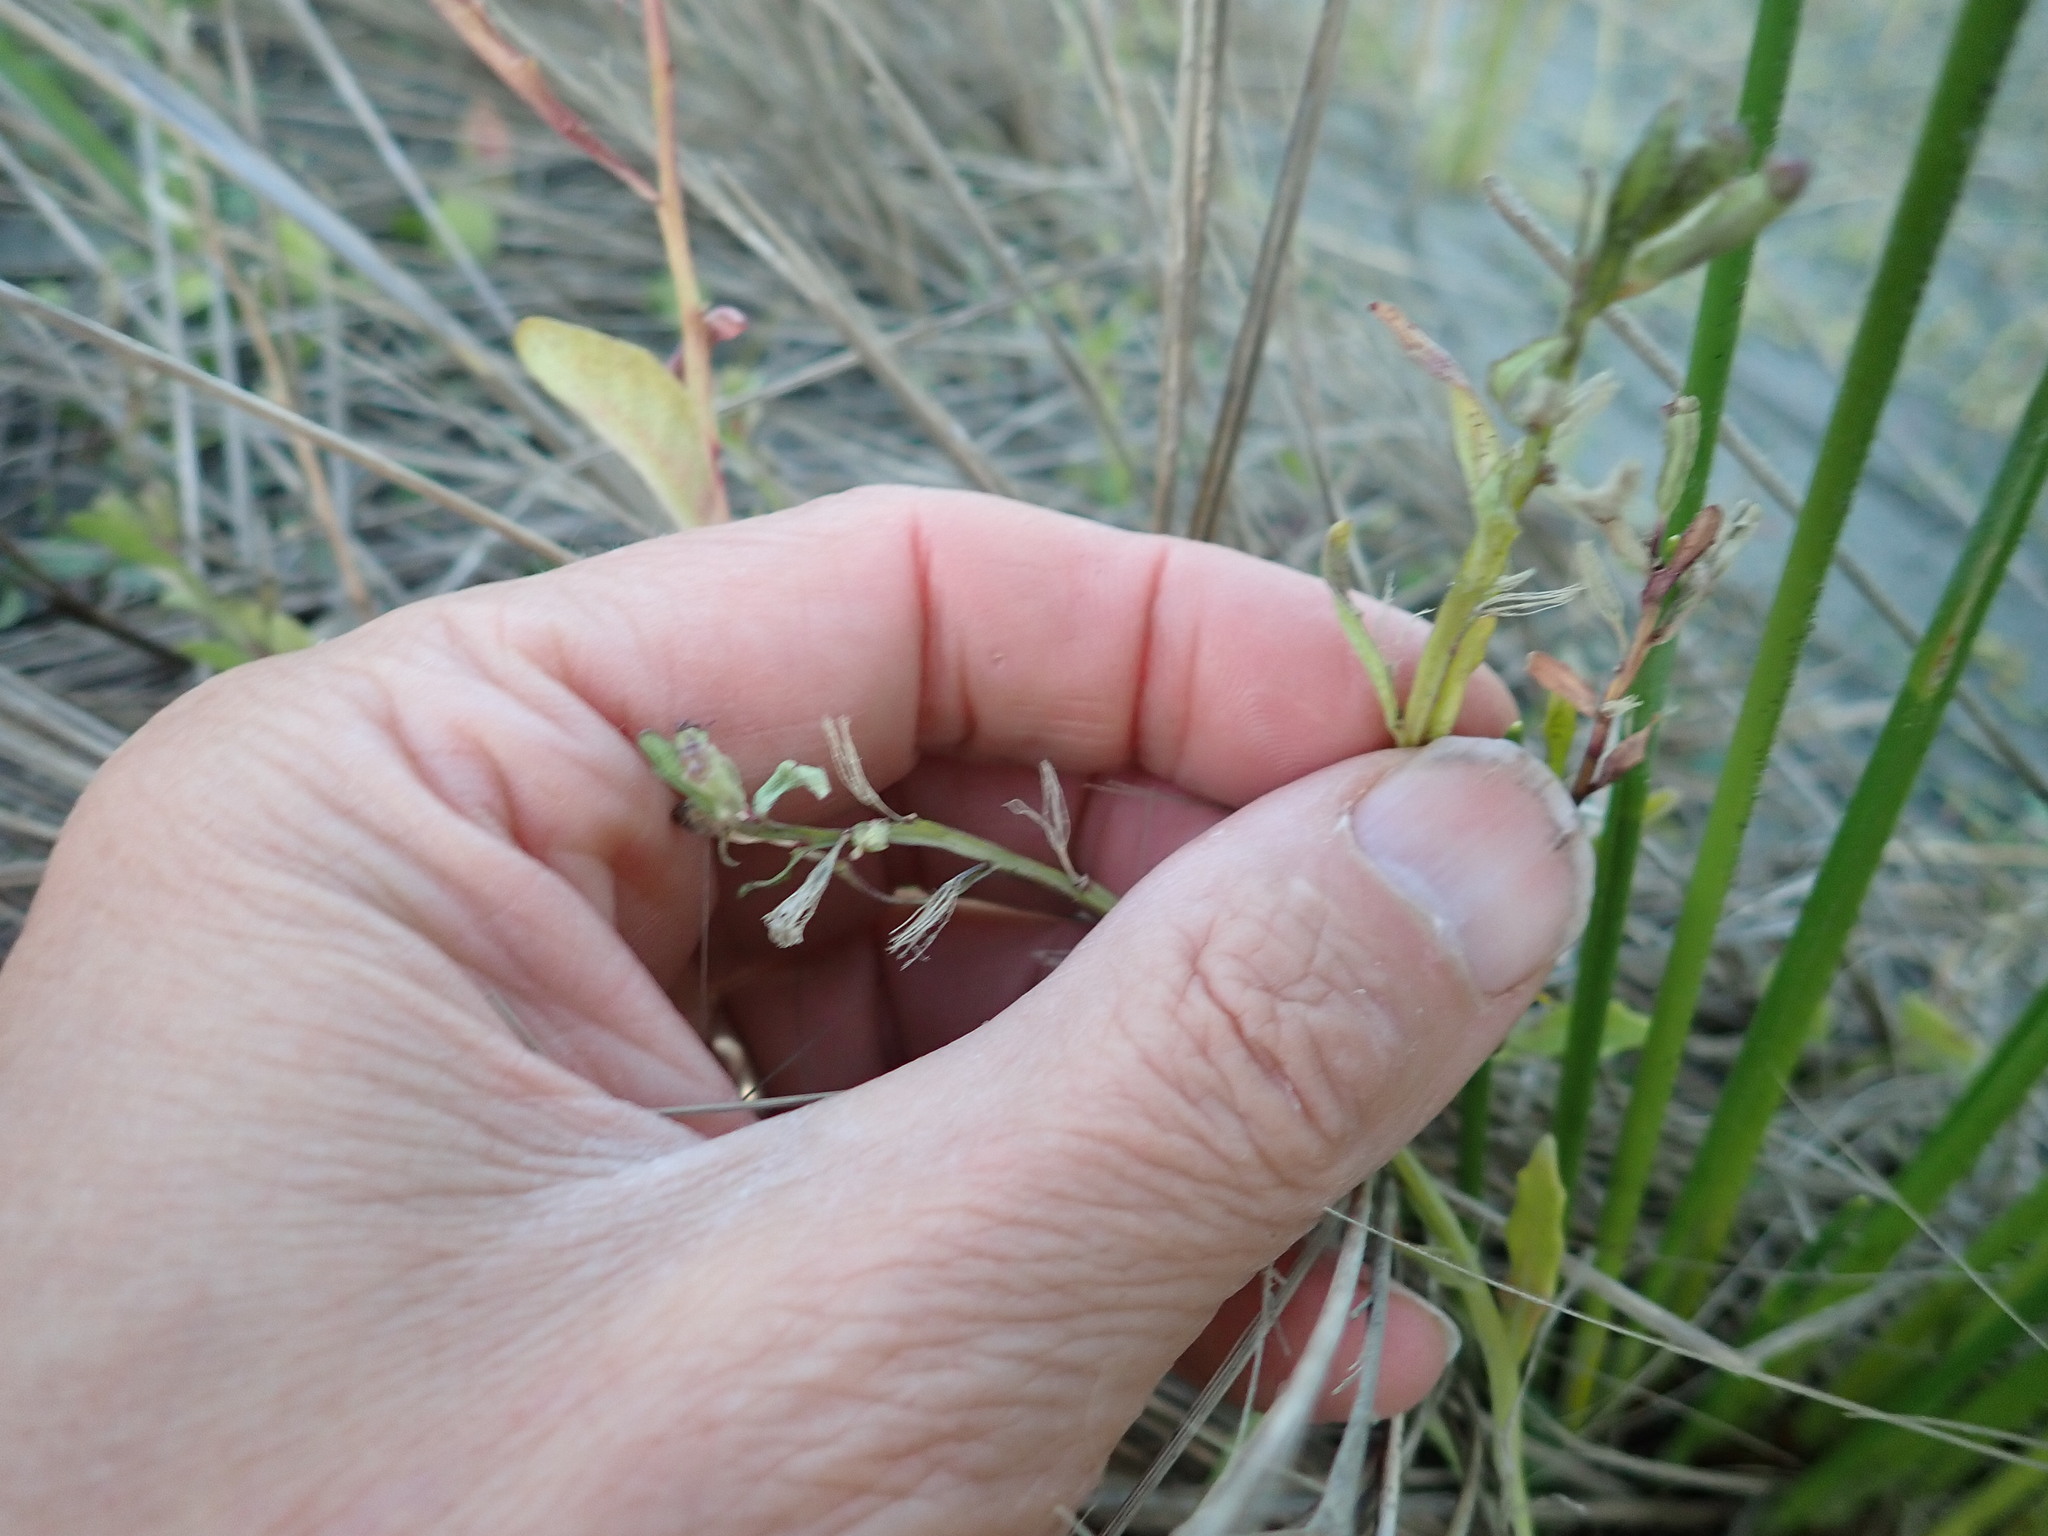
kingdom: Plantae
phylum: Tracheophyta
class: Magnoliopsida
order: Asterales
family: Campanulaceae
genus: Lobelia
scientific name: Lobelia anceps
